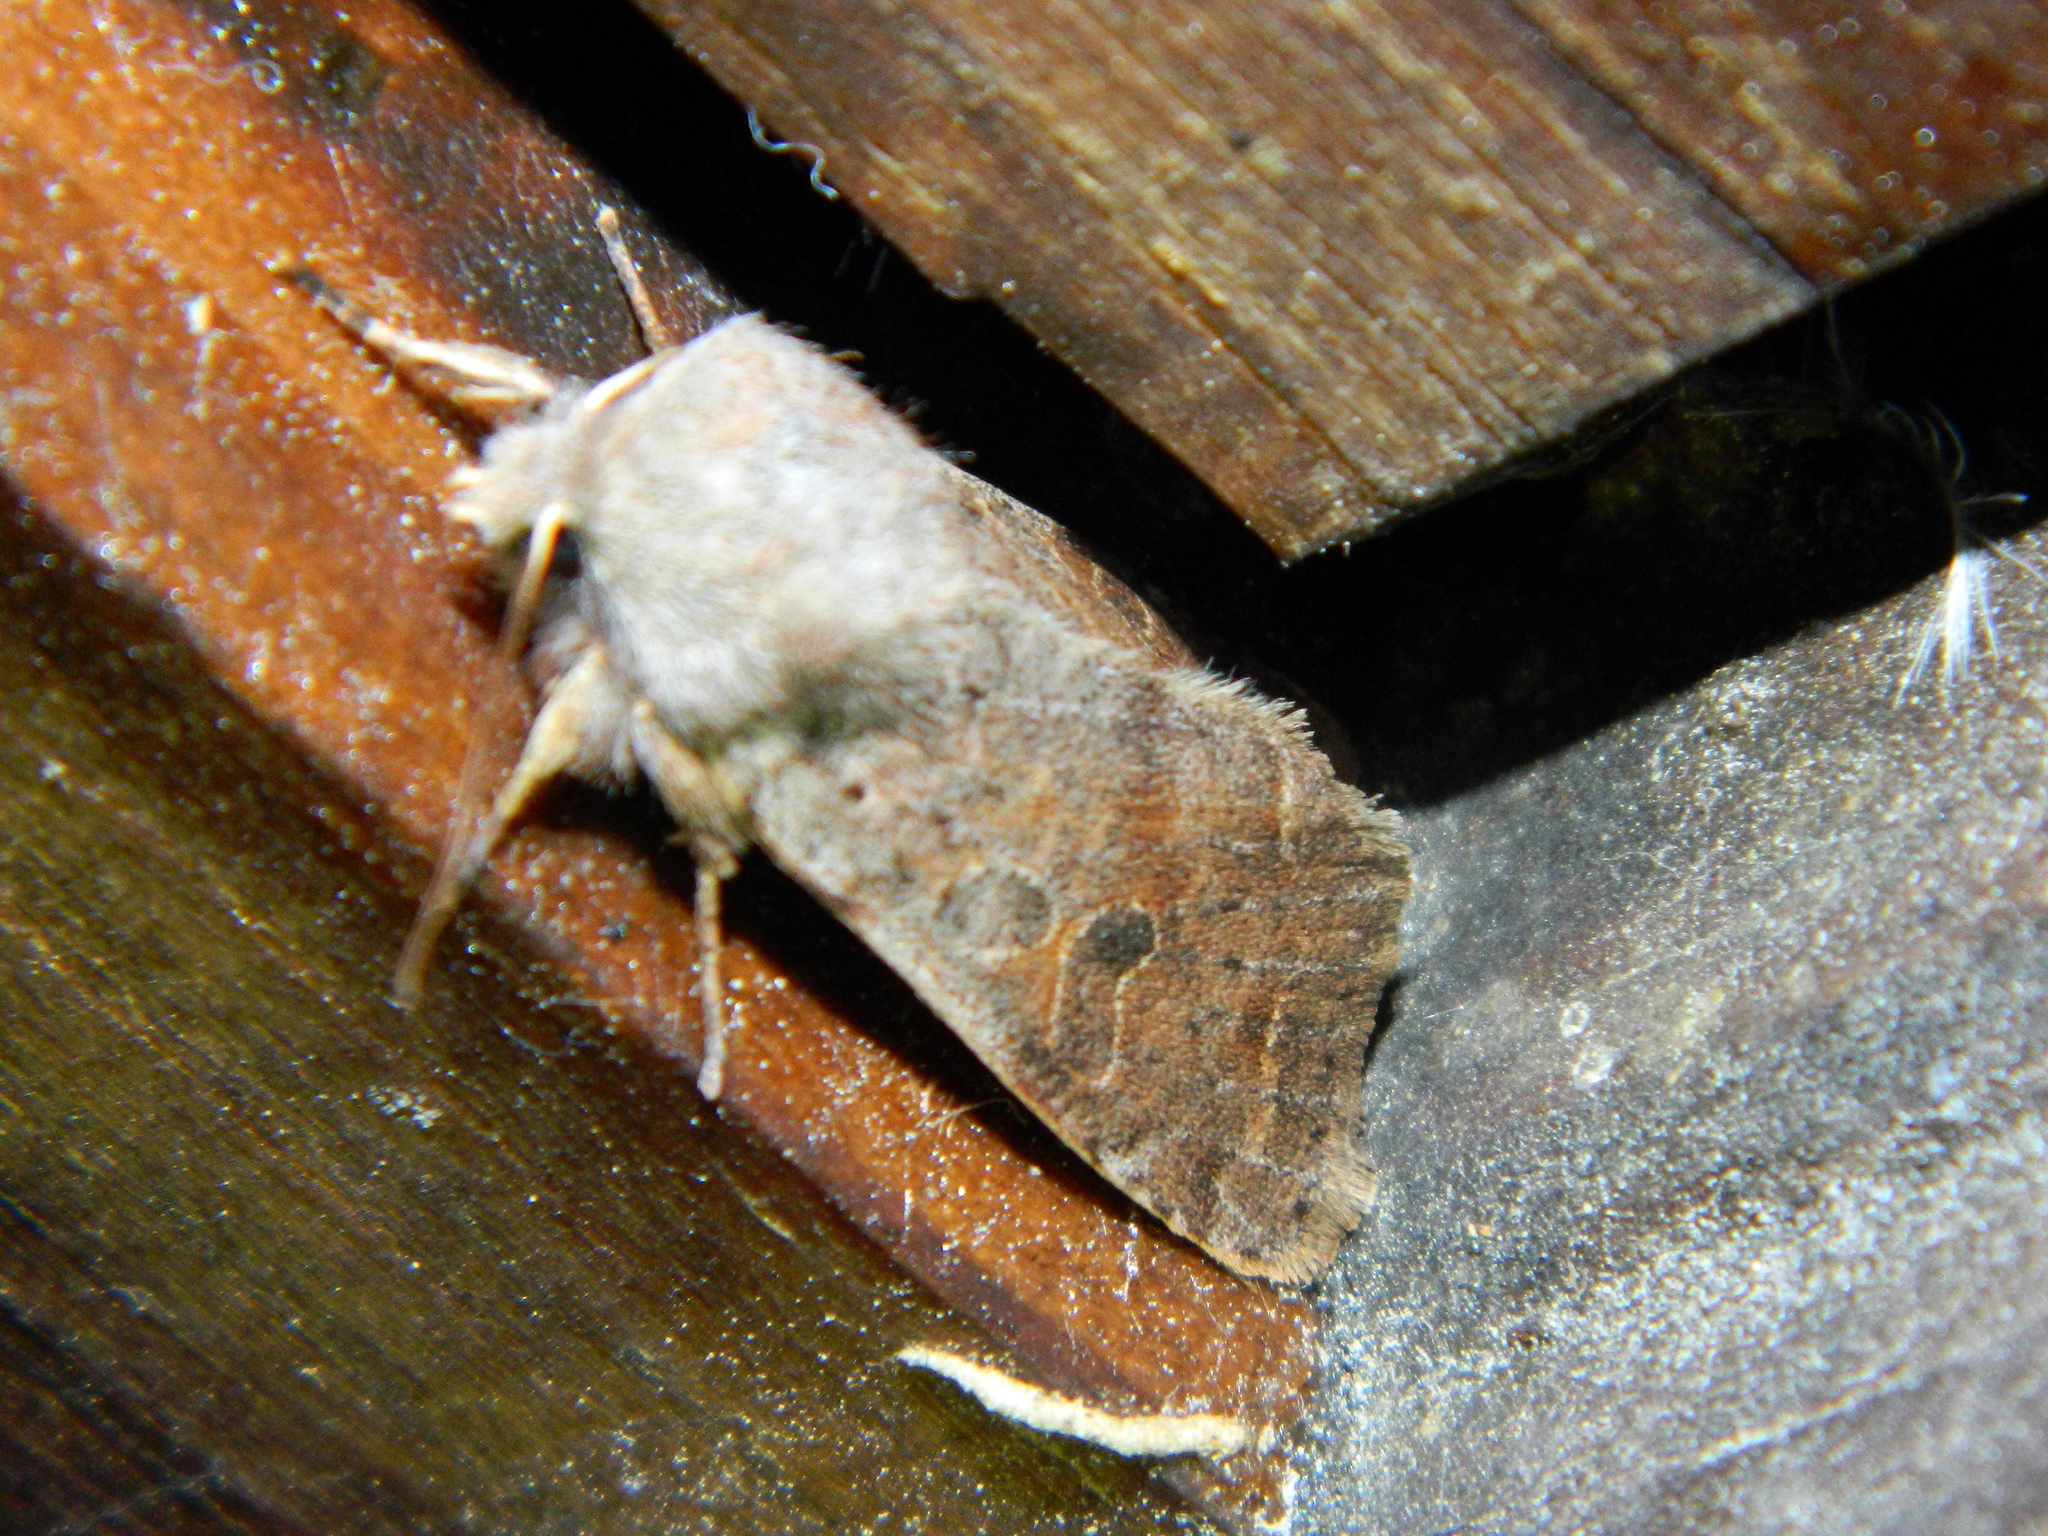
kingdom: Animalia
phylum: Arthropoda
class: Insecta
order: Lepidoptera
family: Noctuidae
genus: Orthosia
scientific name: Orthosia hibisci
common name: Green fruitworm
